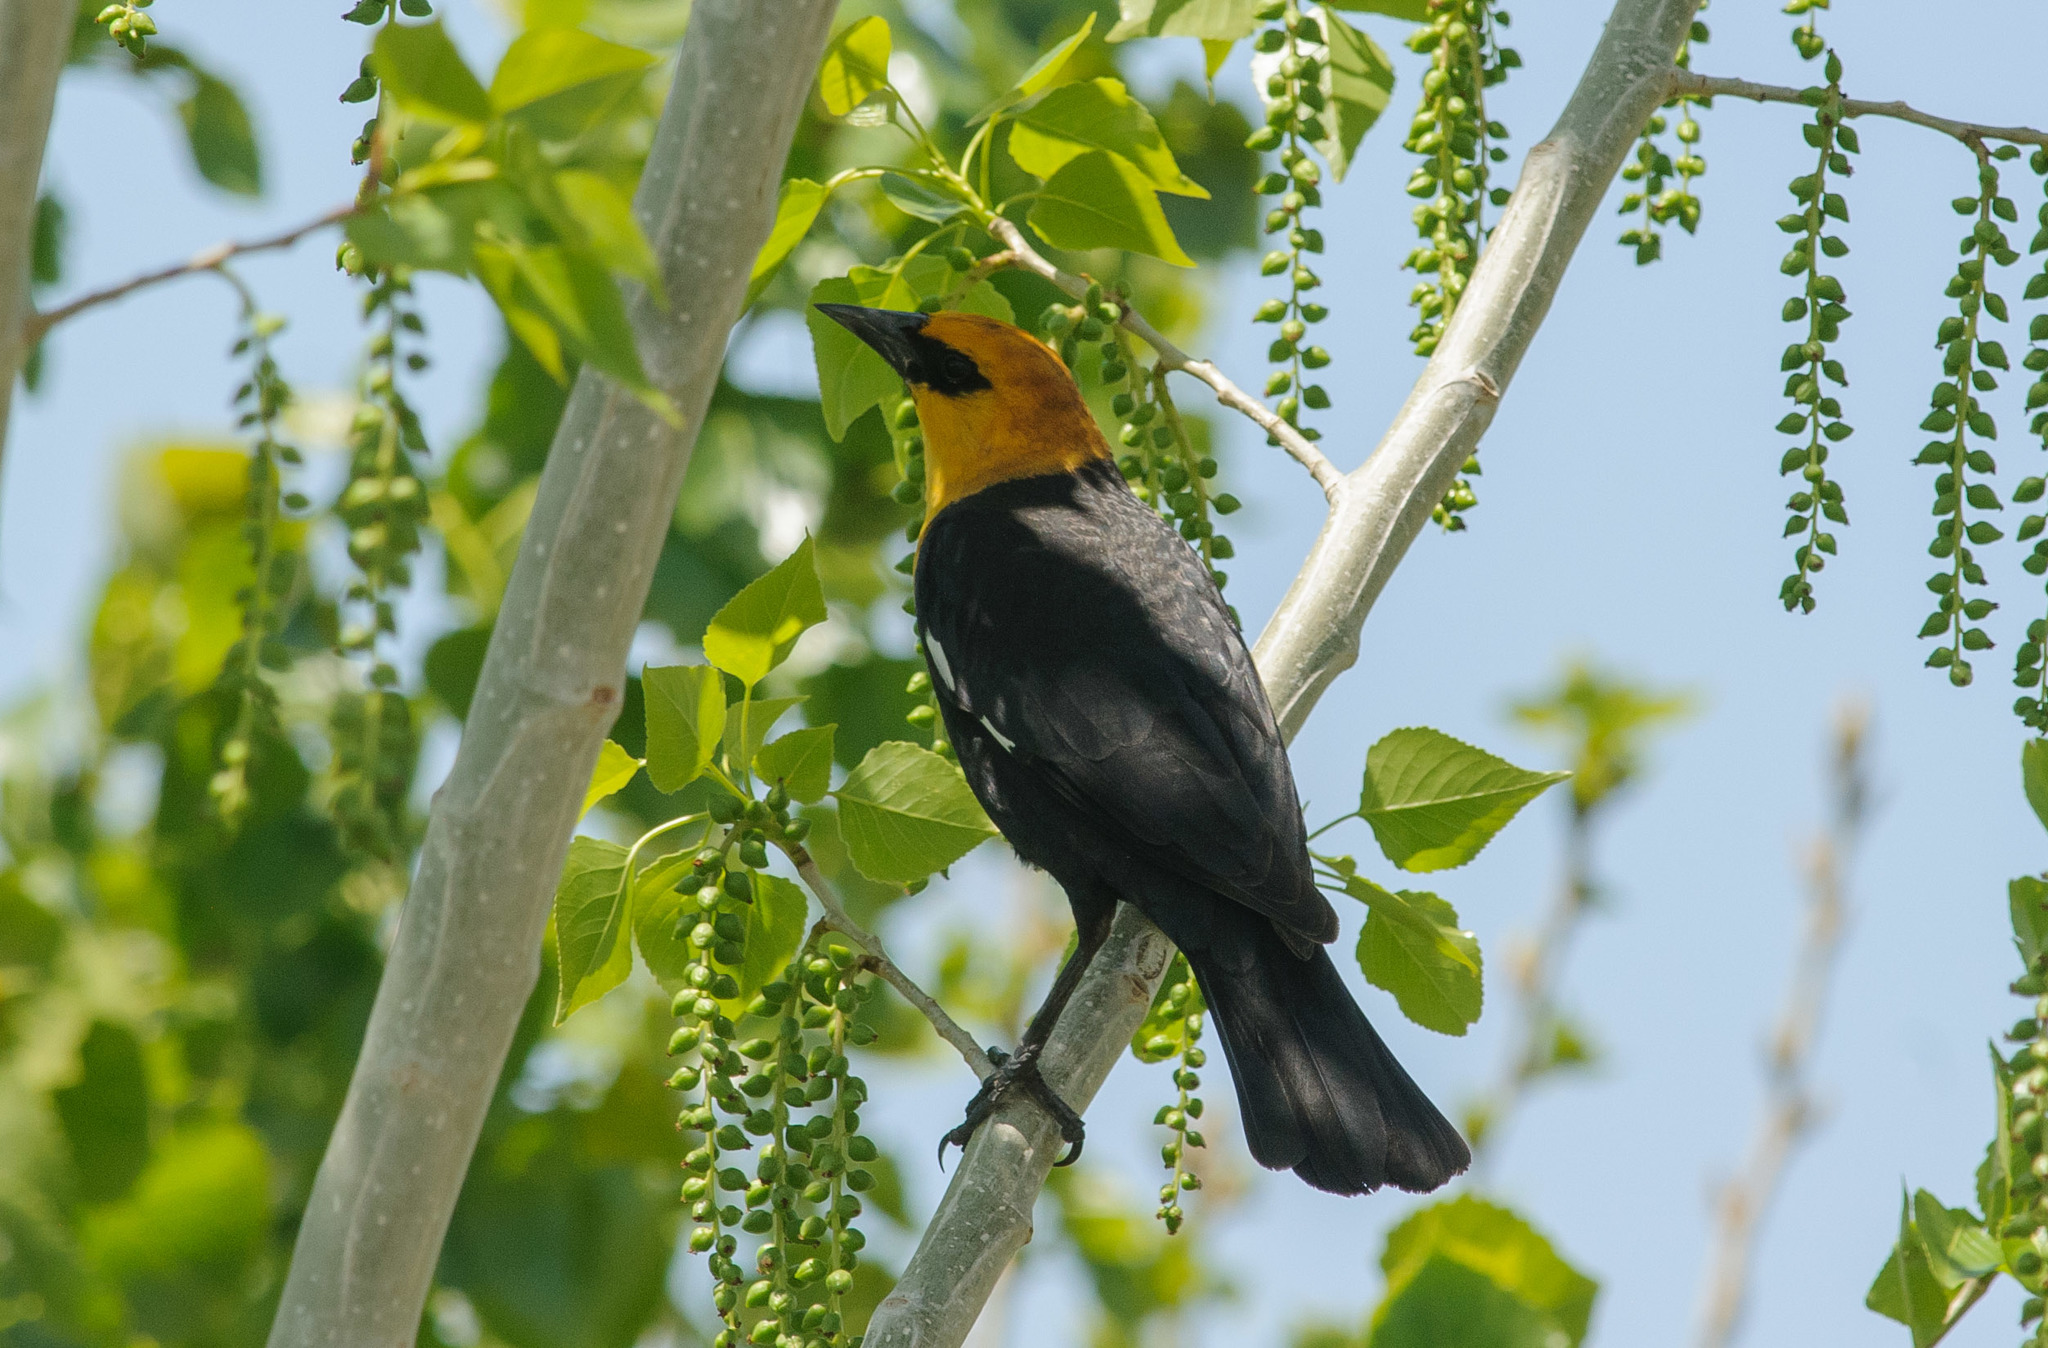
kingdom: Animalia
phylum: Chordata
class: Aves
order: Passeriformes
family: Icteridae
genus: Xanthocephalus
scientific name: Xanthocephalus xanthocephalus
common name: Yellow-headed blackbird
